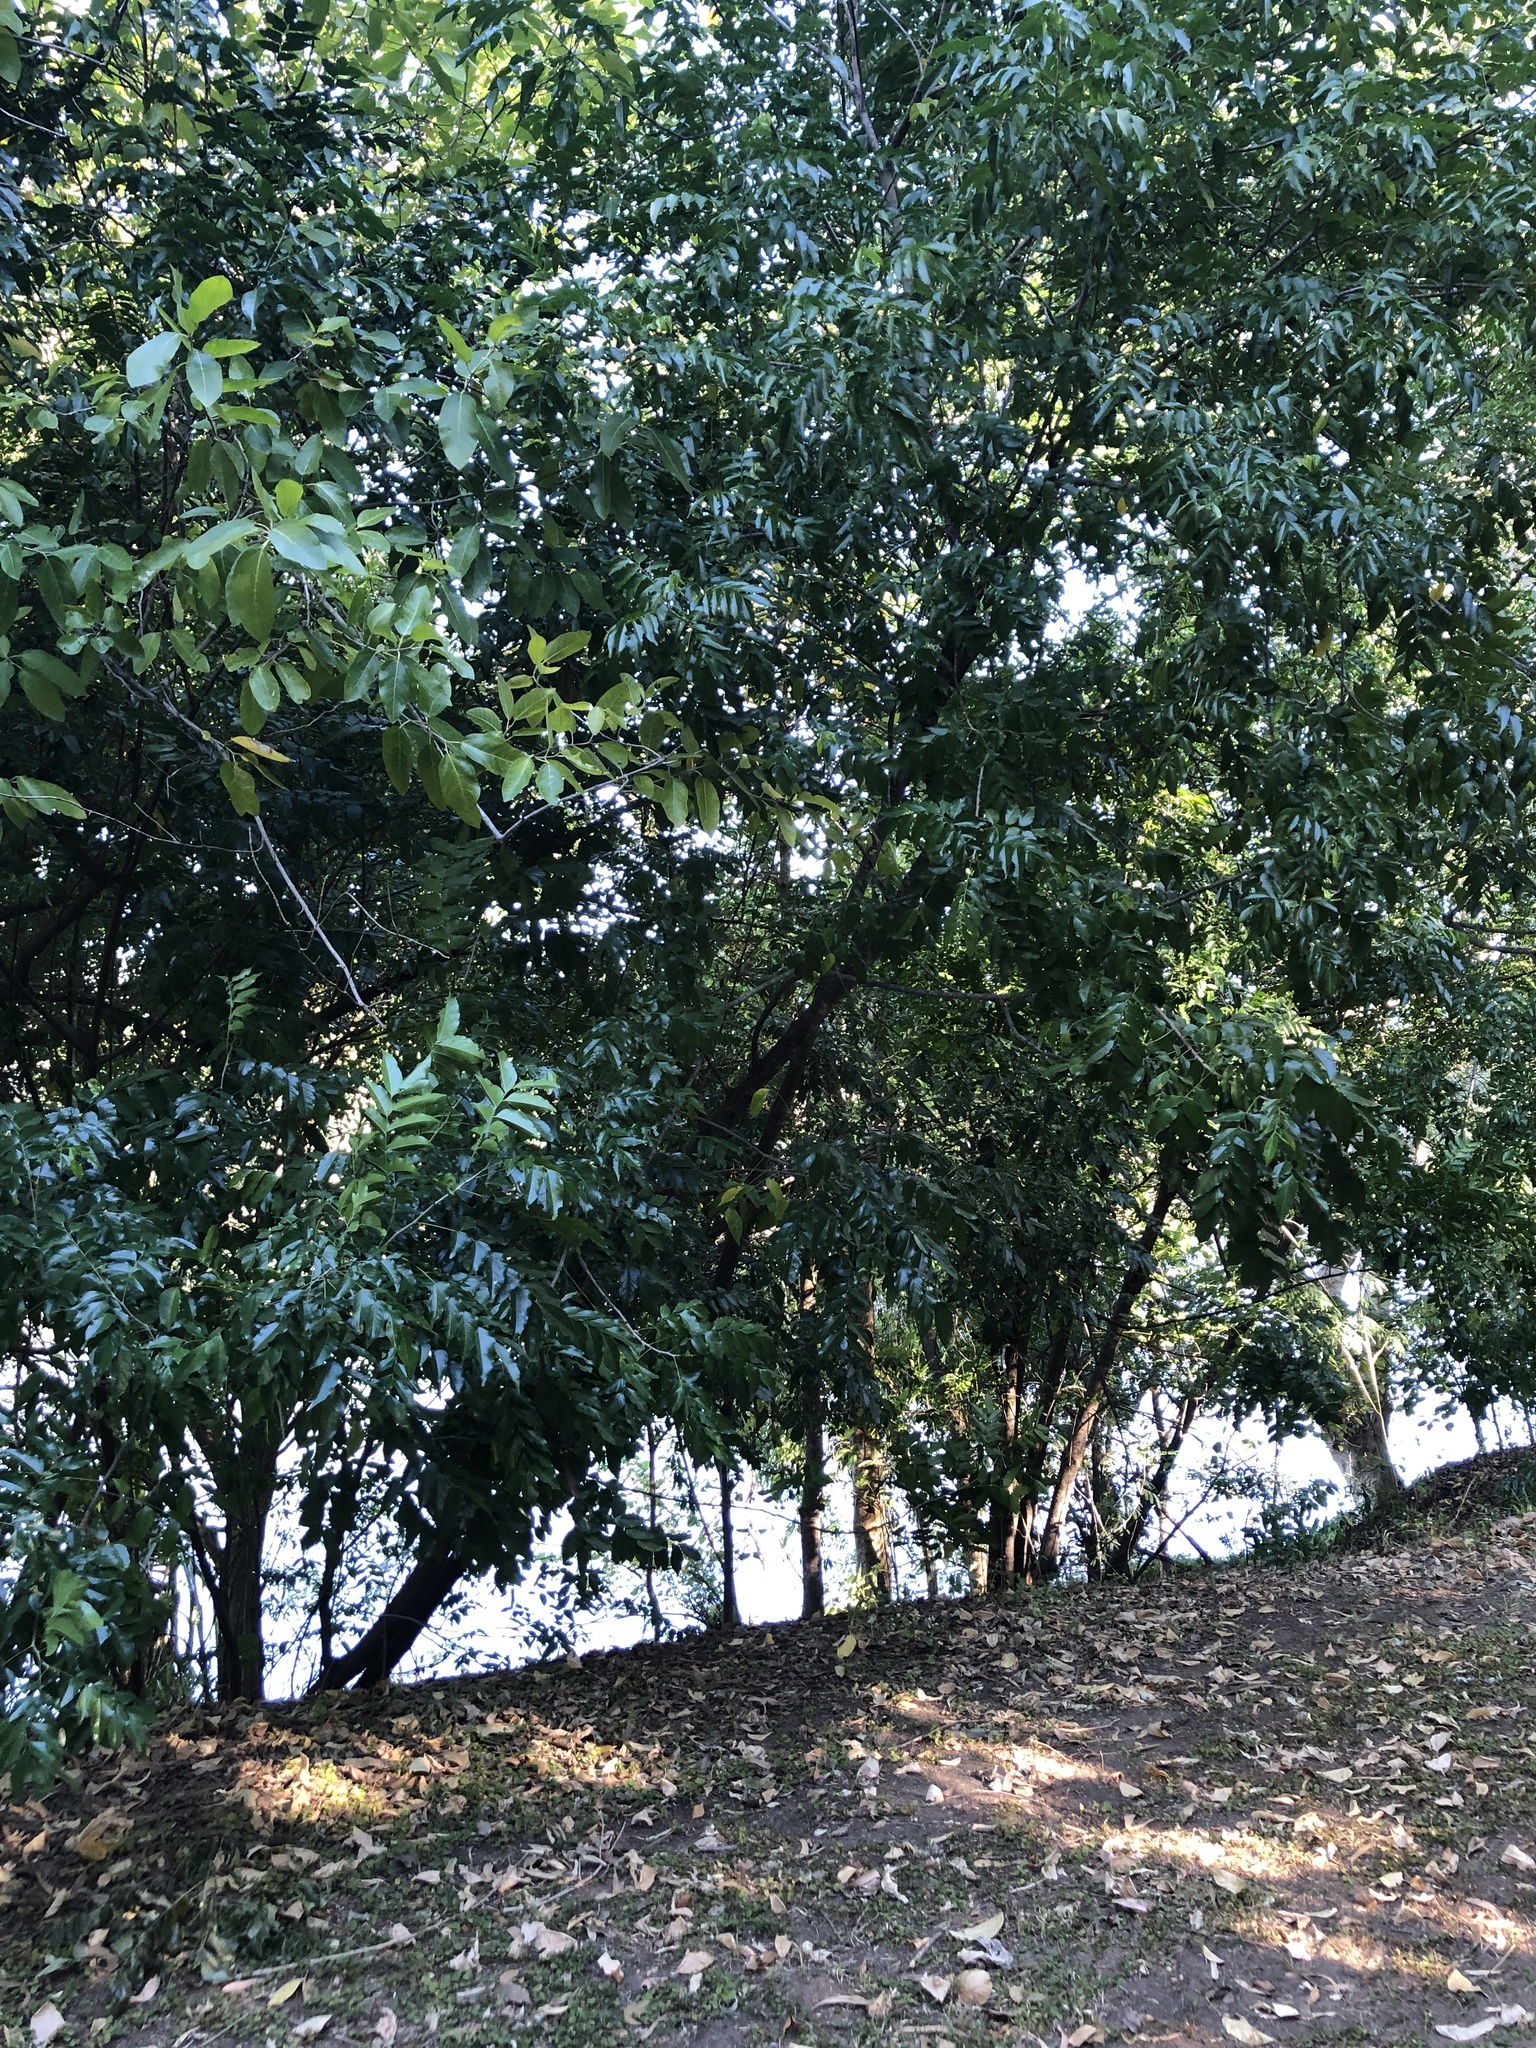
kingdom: Plantae
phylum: Tracheophyta
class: Magnoliopsida
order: Sapindales
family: Sapindaceae
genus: Ganophyllum
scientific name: Ganophyllum falcatum
